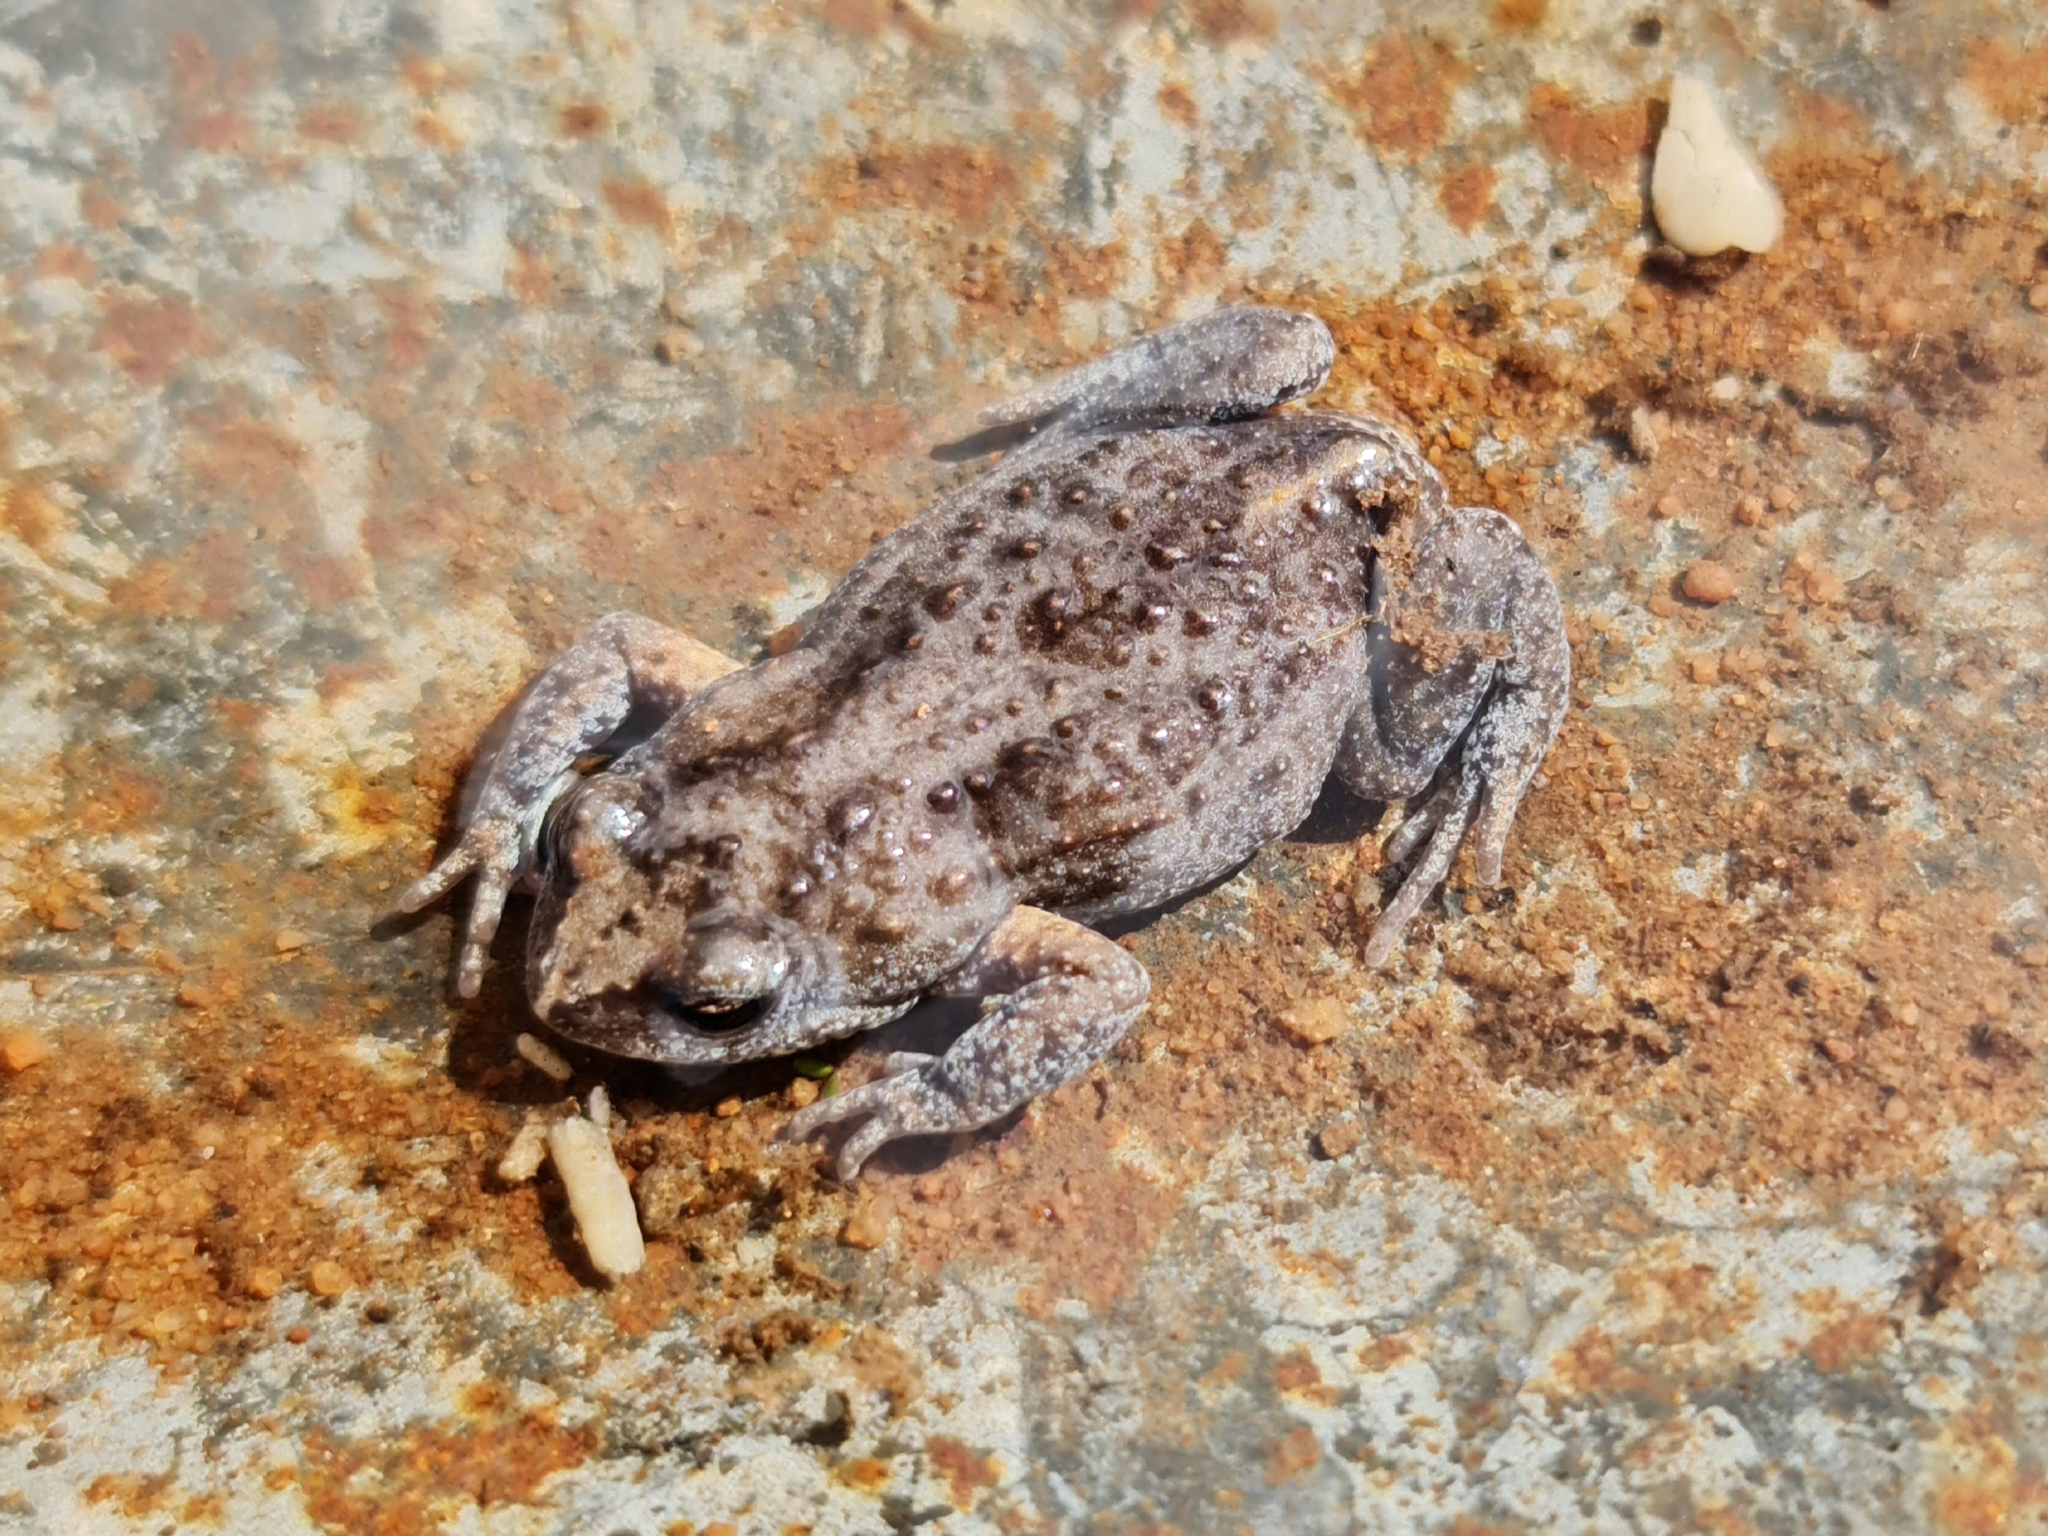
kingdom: Animalia
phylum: Chordata
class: Amphibia
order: Anura
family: Myobatrachidae
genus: Pseudophryne
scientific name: Pseudophryne bibronii
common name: Bibron’s toadlet
